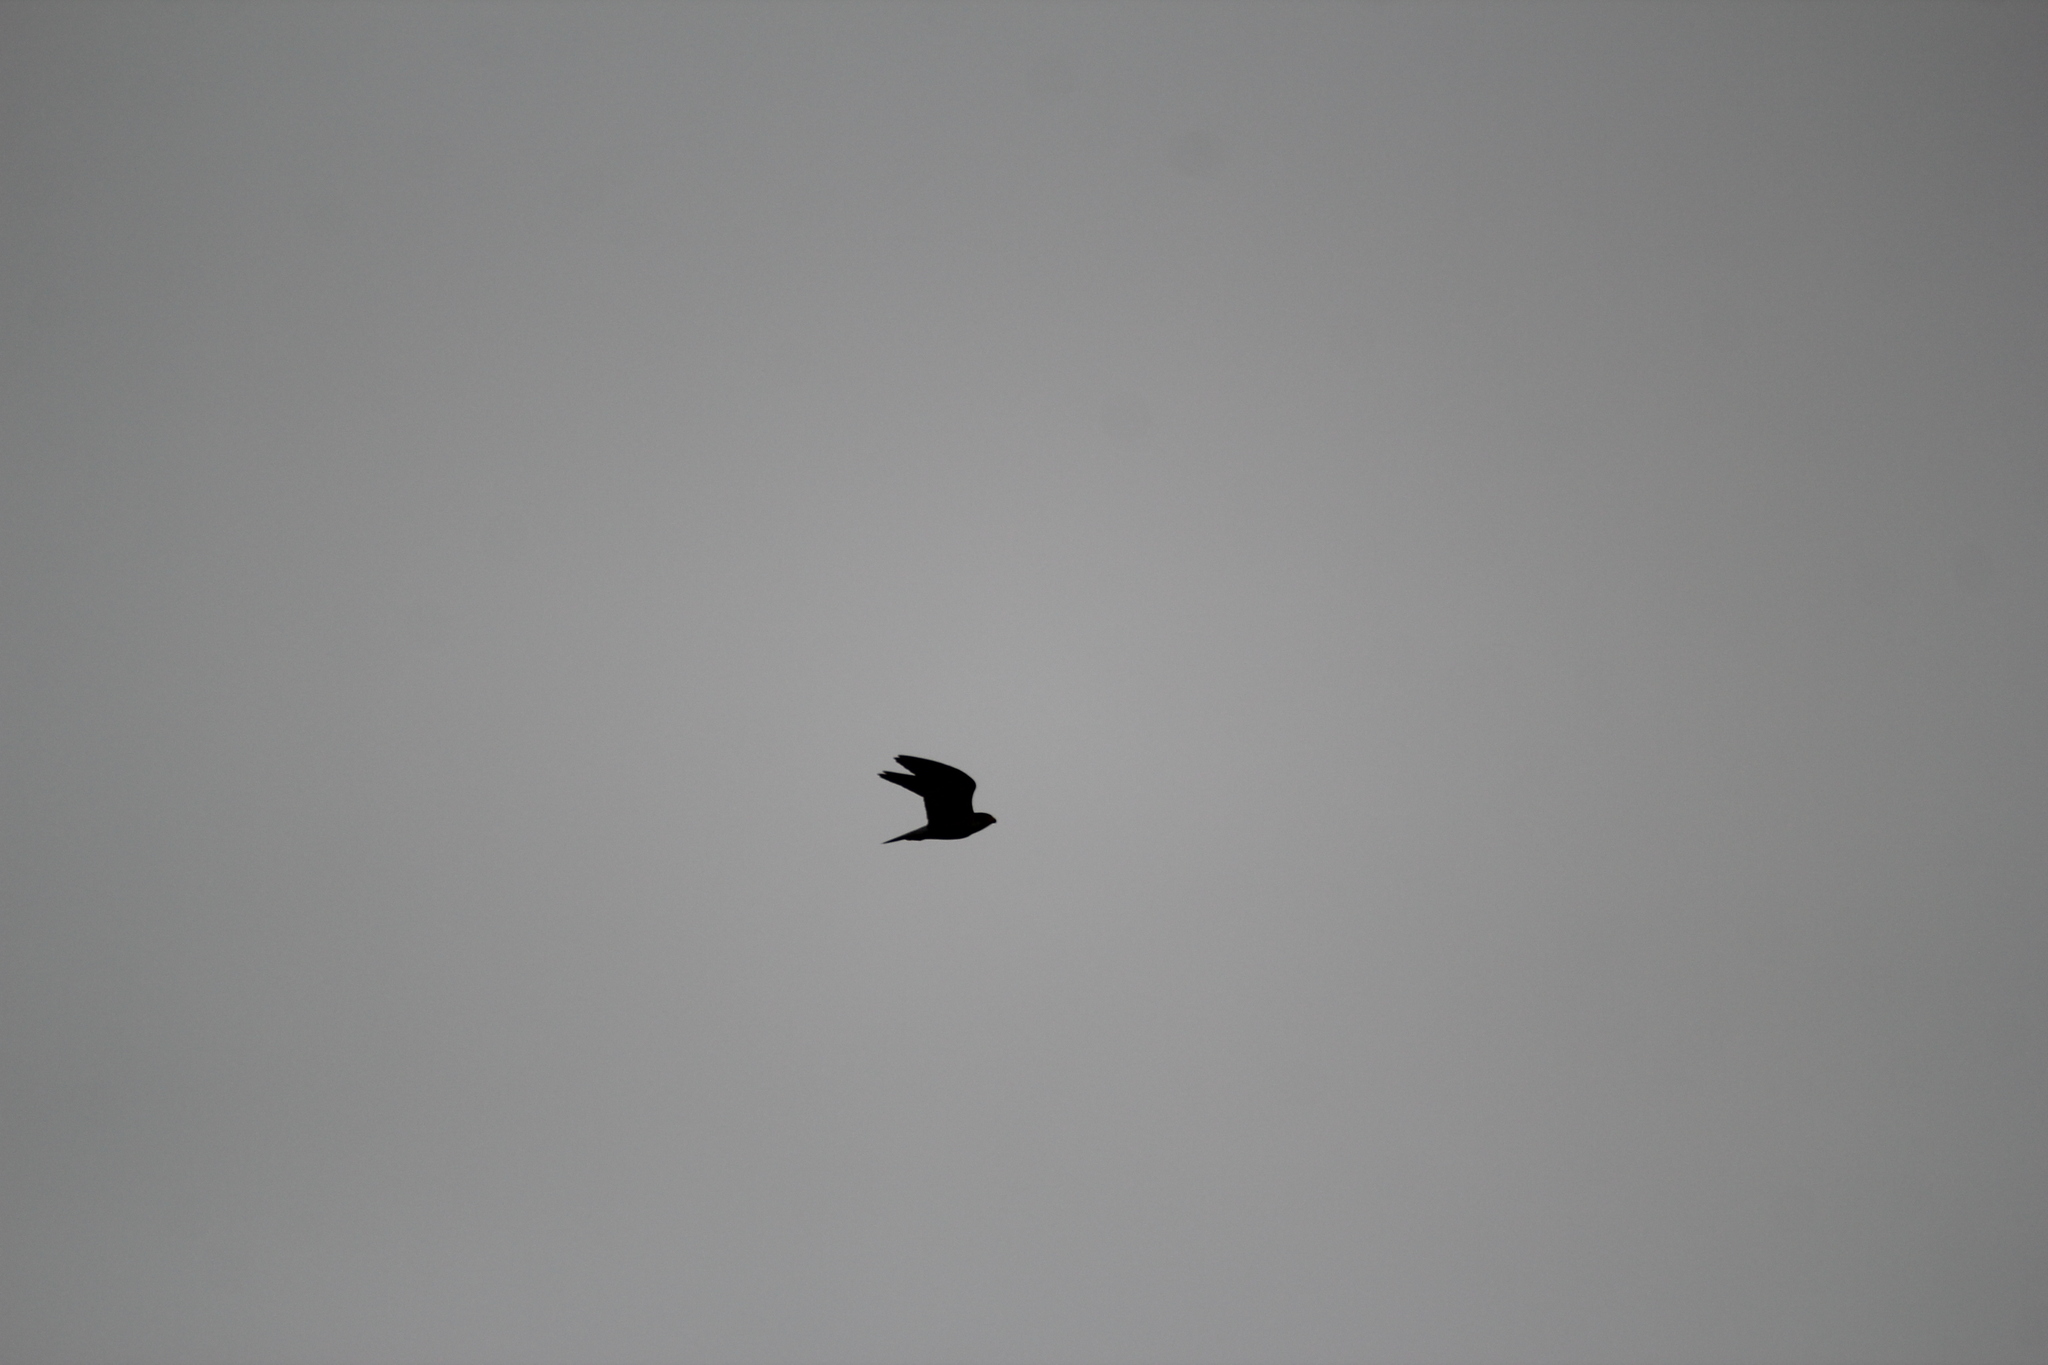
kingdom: Animalia
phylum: Chordata
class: Aves
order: Falconiformes
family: Falconidae
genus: Falco
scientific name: Falco peregrinus
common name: Peregrine falcon
